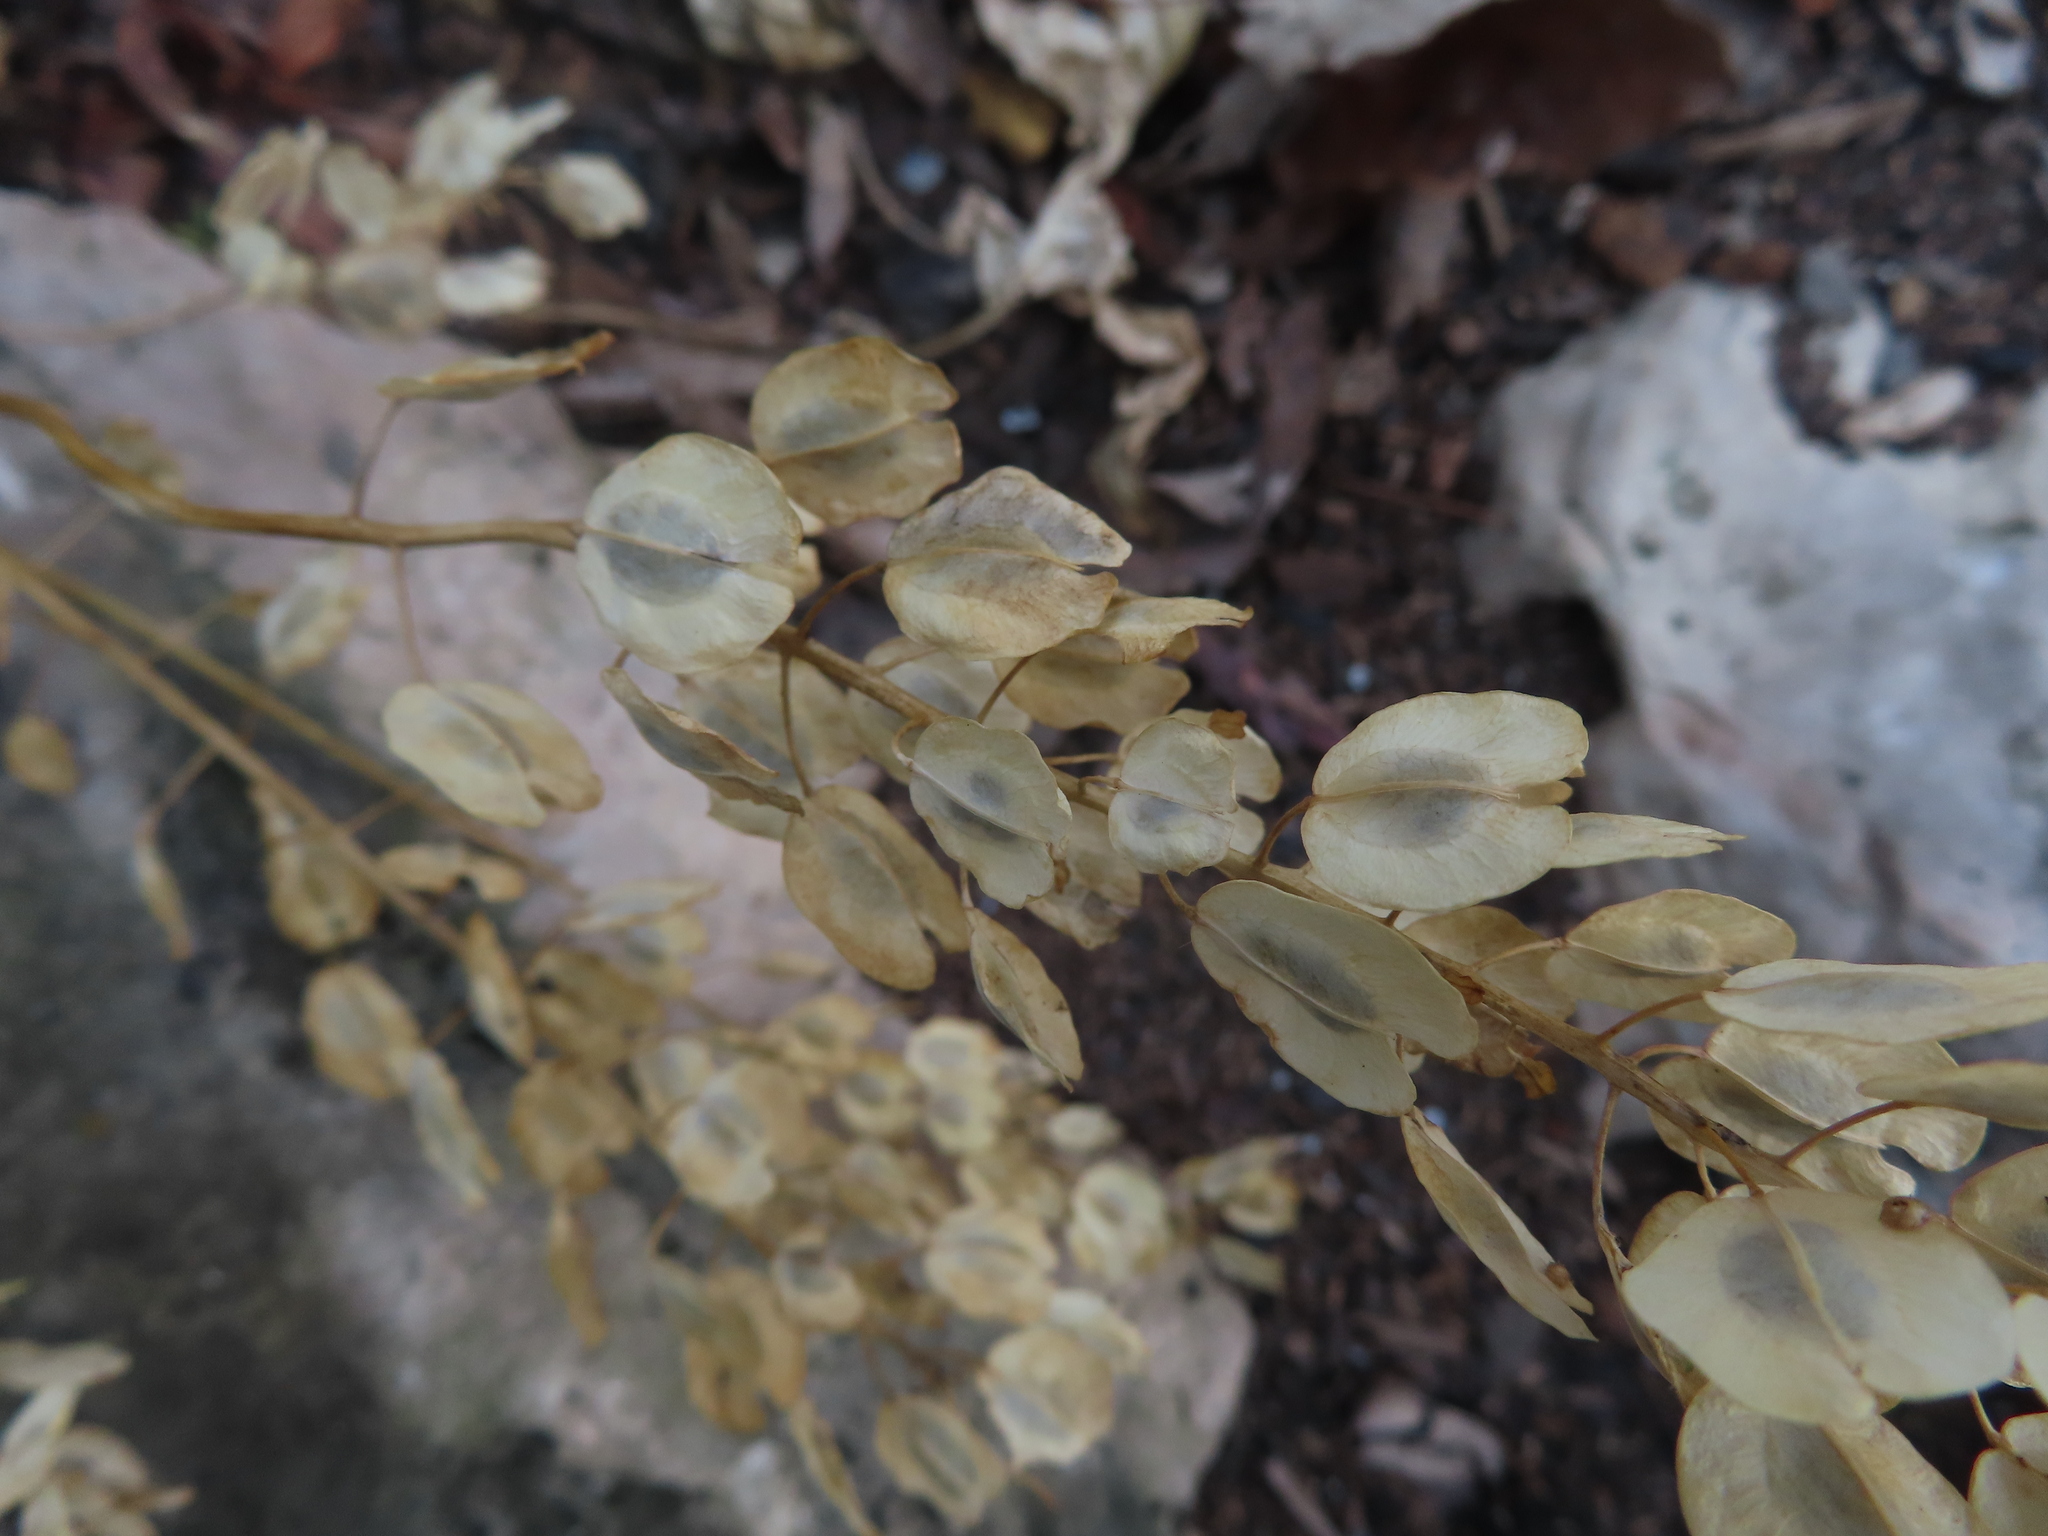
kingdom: Plantae
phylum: Tracheophyta
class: Magnoliopsida
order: Brassicales
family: Brassicaceae
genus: Thlaspi
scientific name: Thlaspi arvense
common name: Field pennycress
